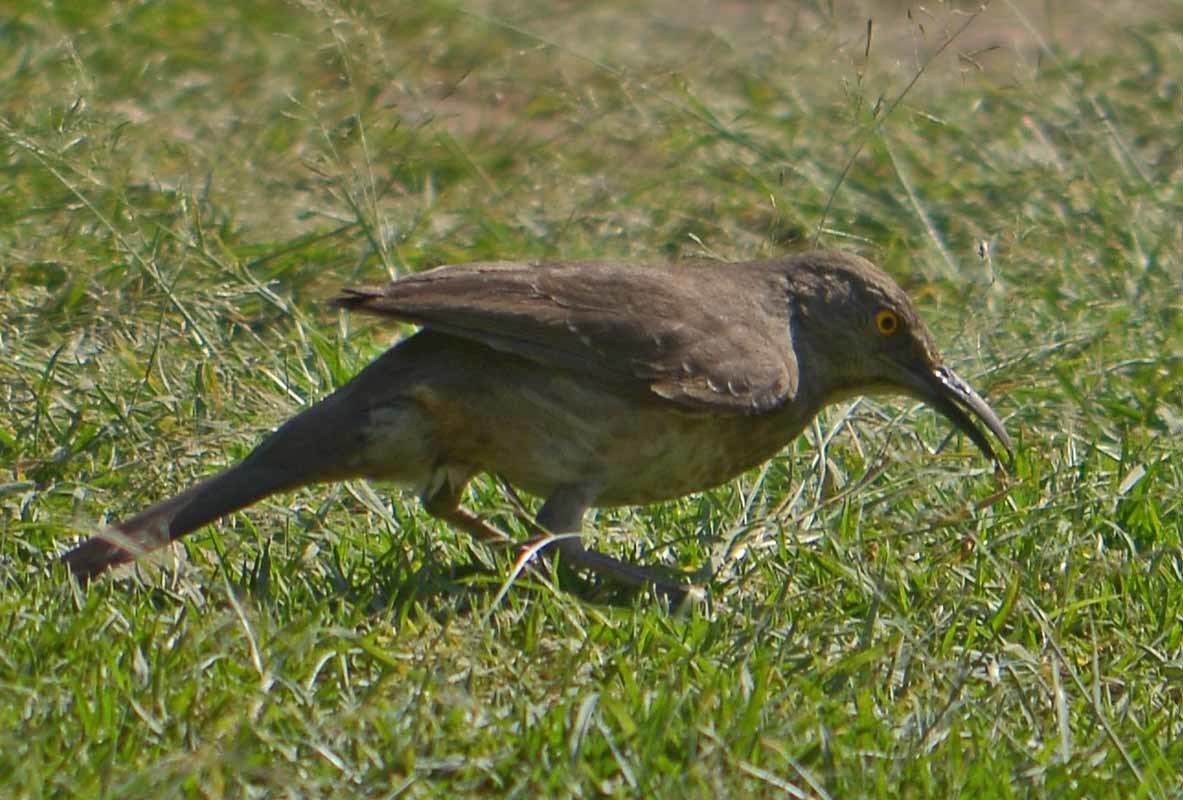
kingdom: Animalia
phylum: Chordata
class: Aves
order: Passeriformes
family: Mimidae
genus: Toxostoma
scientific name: Toxostoma curvirostre
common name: Curve-billed thrasher
